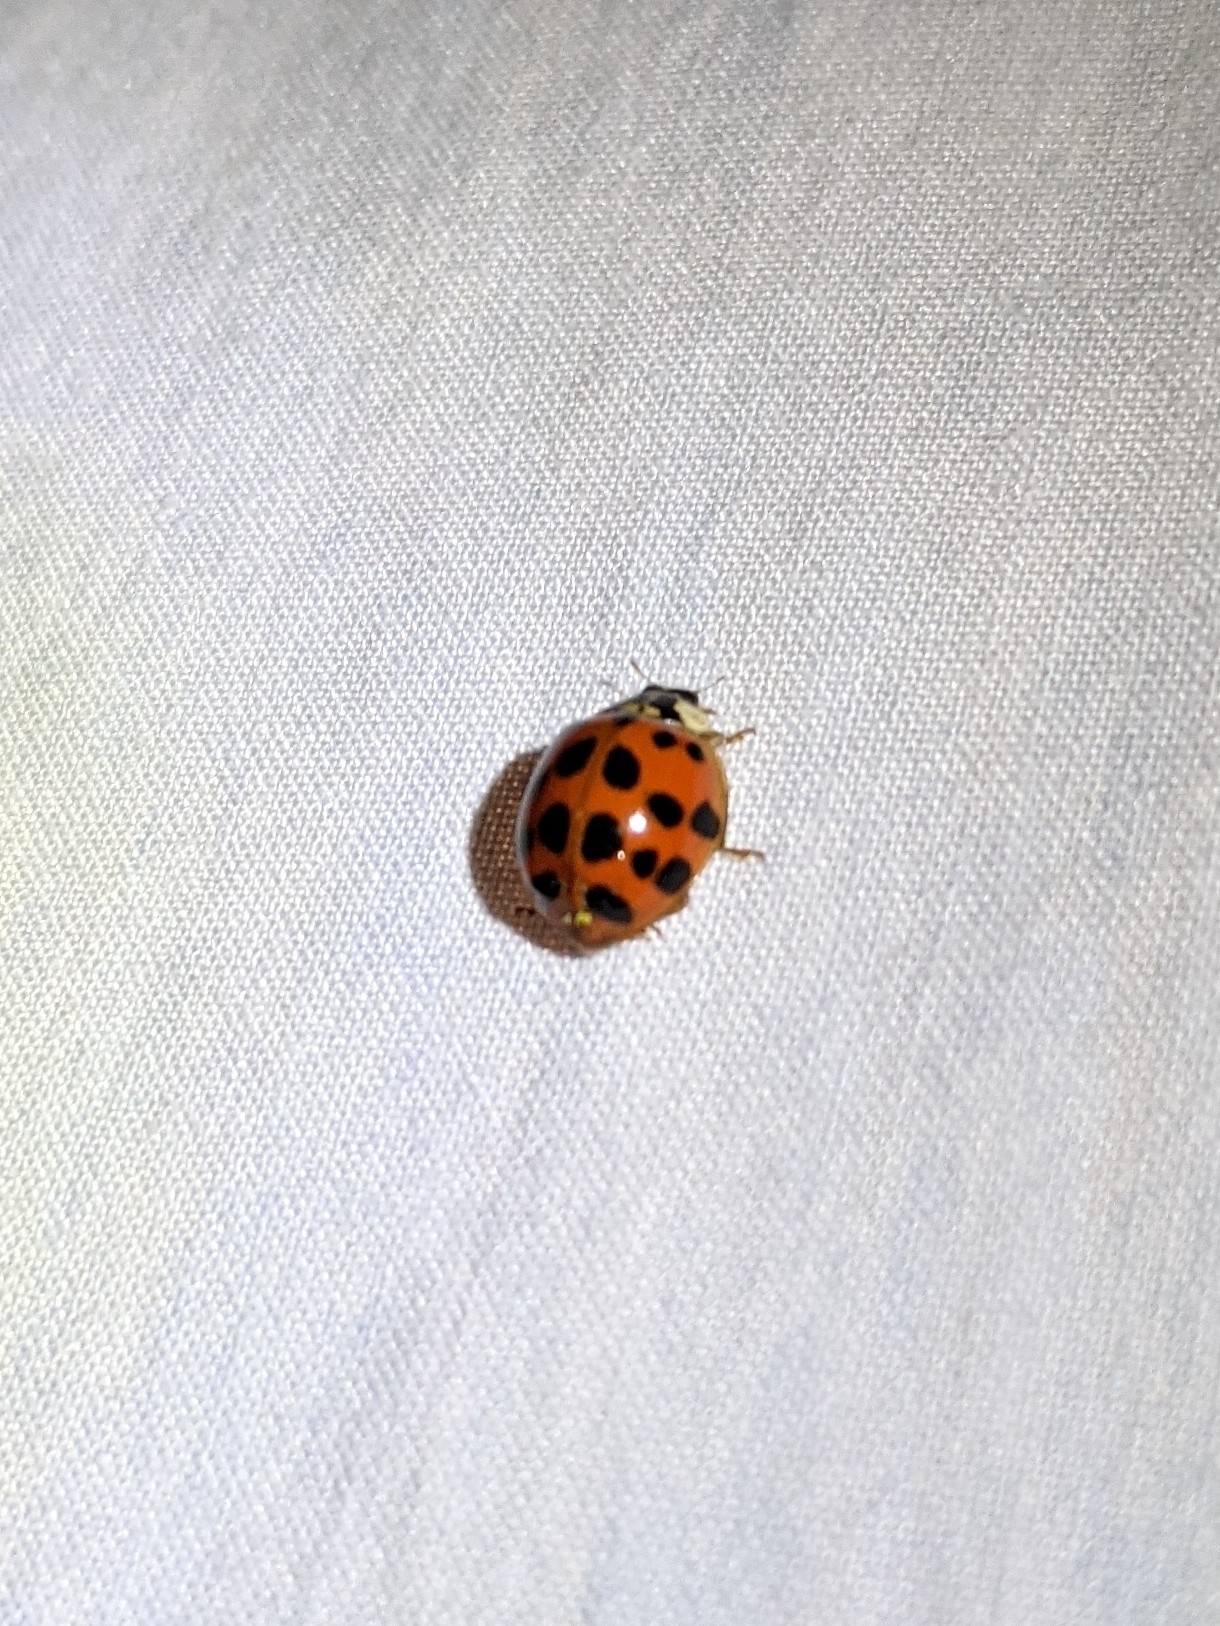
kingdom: Animalia
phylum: Arthropoda
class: Insecta
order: Coleoptera
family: Coccinellidae
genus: Harmonia
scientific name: Harmonia axyridis
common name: Harlequin ladybird
